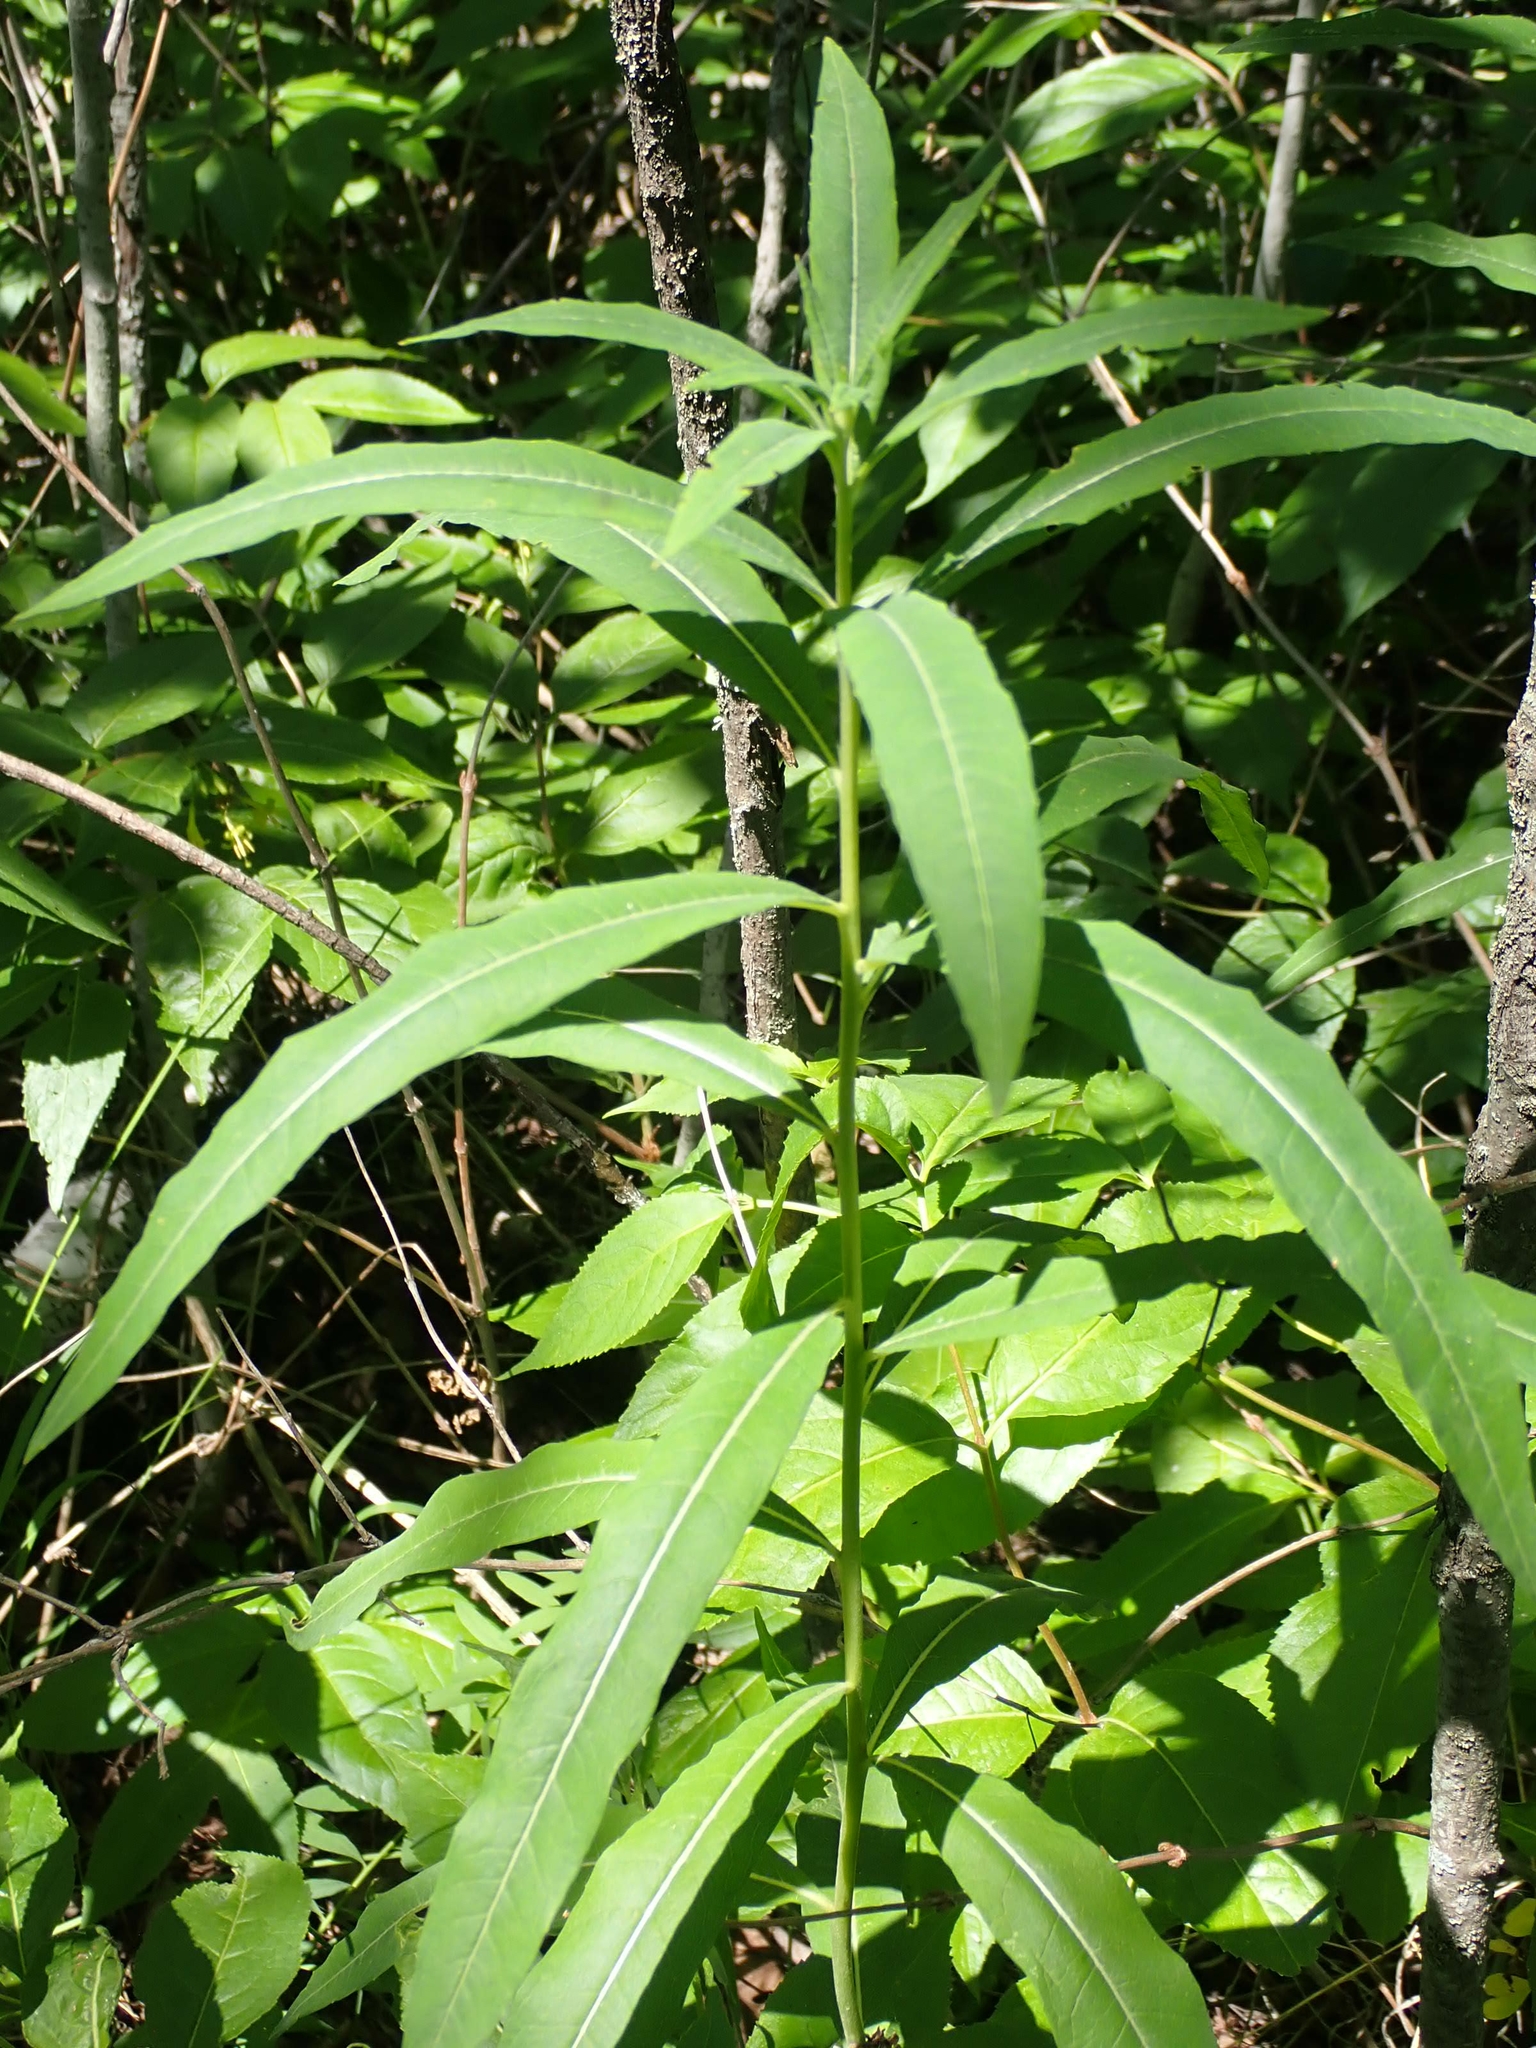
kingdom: Plantae
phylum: Tracheophyta
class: Magnoliopsida
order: Myrtales
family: Onagraceae
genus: Chamaenerion
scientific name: Chamaenerion angustifolium
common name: Fireweed
